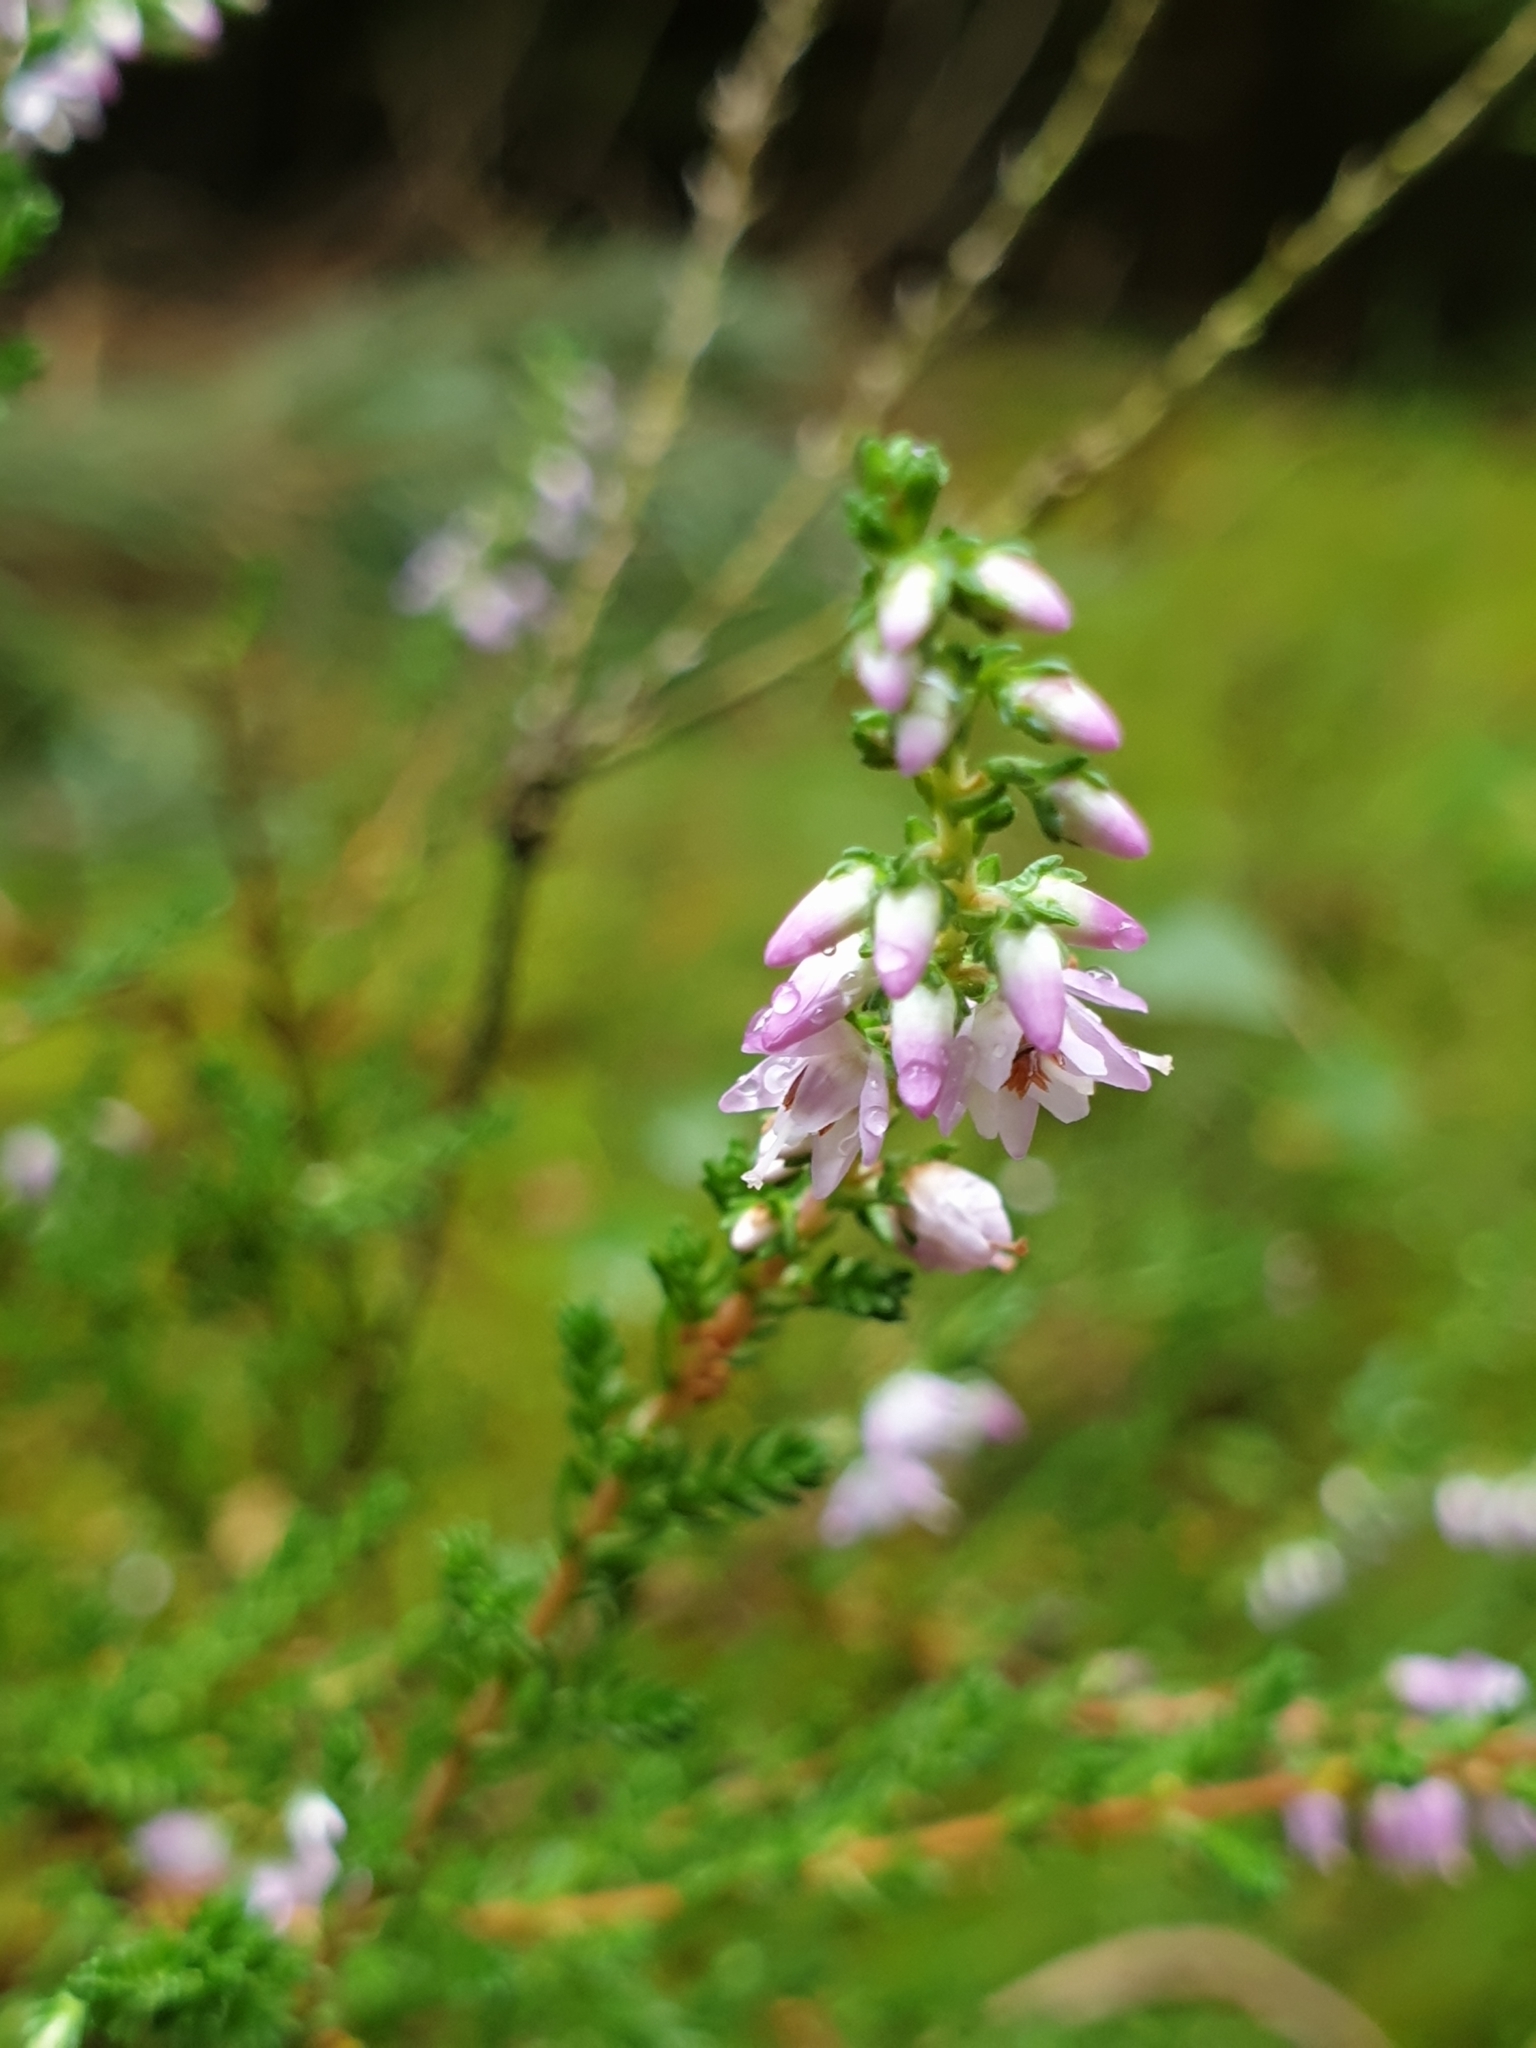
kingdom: Plantae
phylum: Tracheophyta
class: Magnoliopsida
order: Ericales
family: Ericaceae
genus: Calluna
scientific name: Calluna vulgaris
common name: Heather
